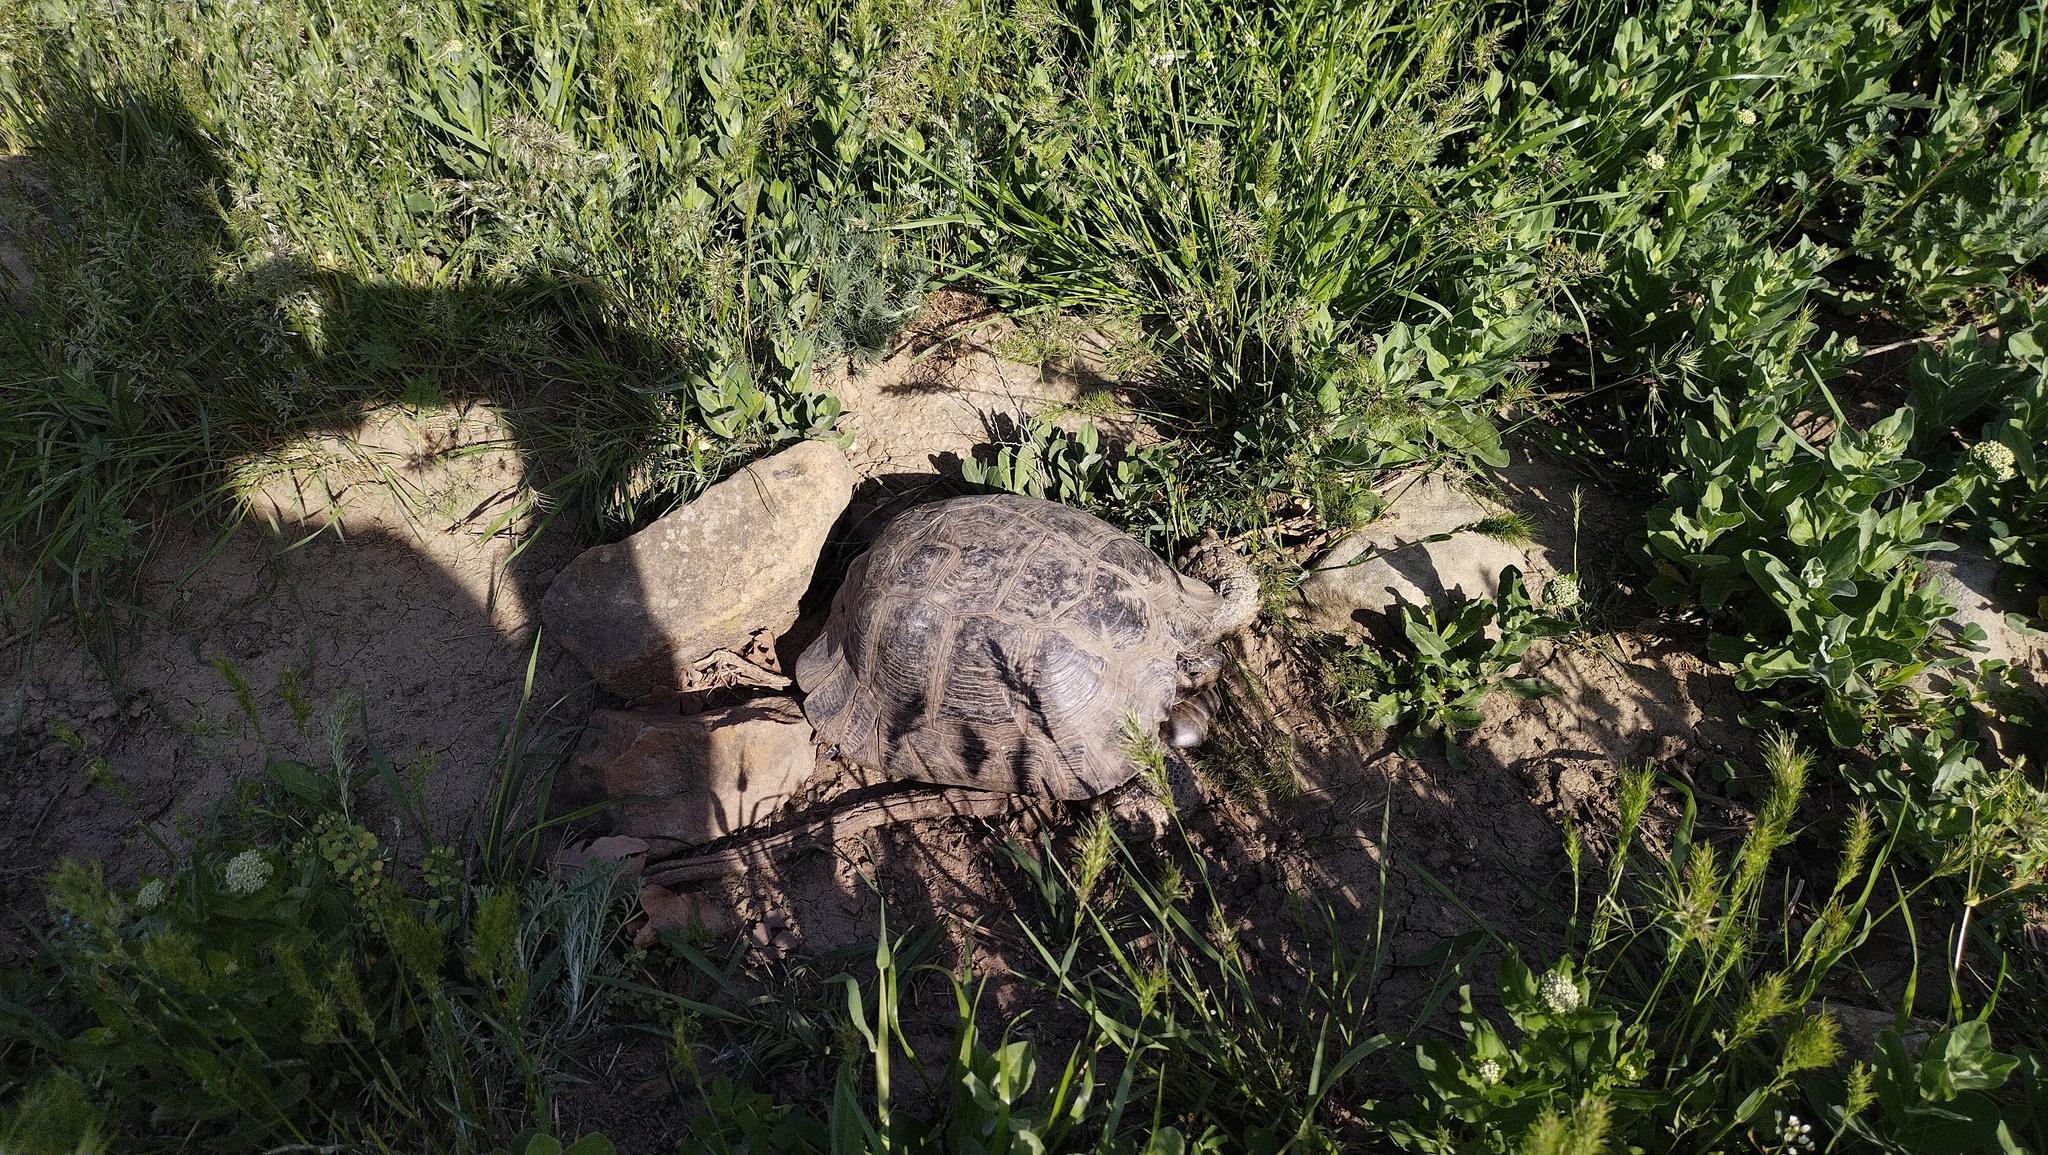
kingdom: Animalia
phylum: Chordata
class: Testudines
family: Testudinidae
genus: Testudo
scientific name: Testudo graeca
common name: Common tortoise
